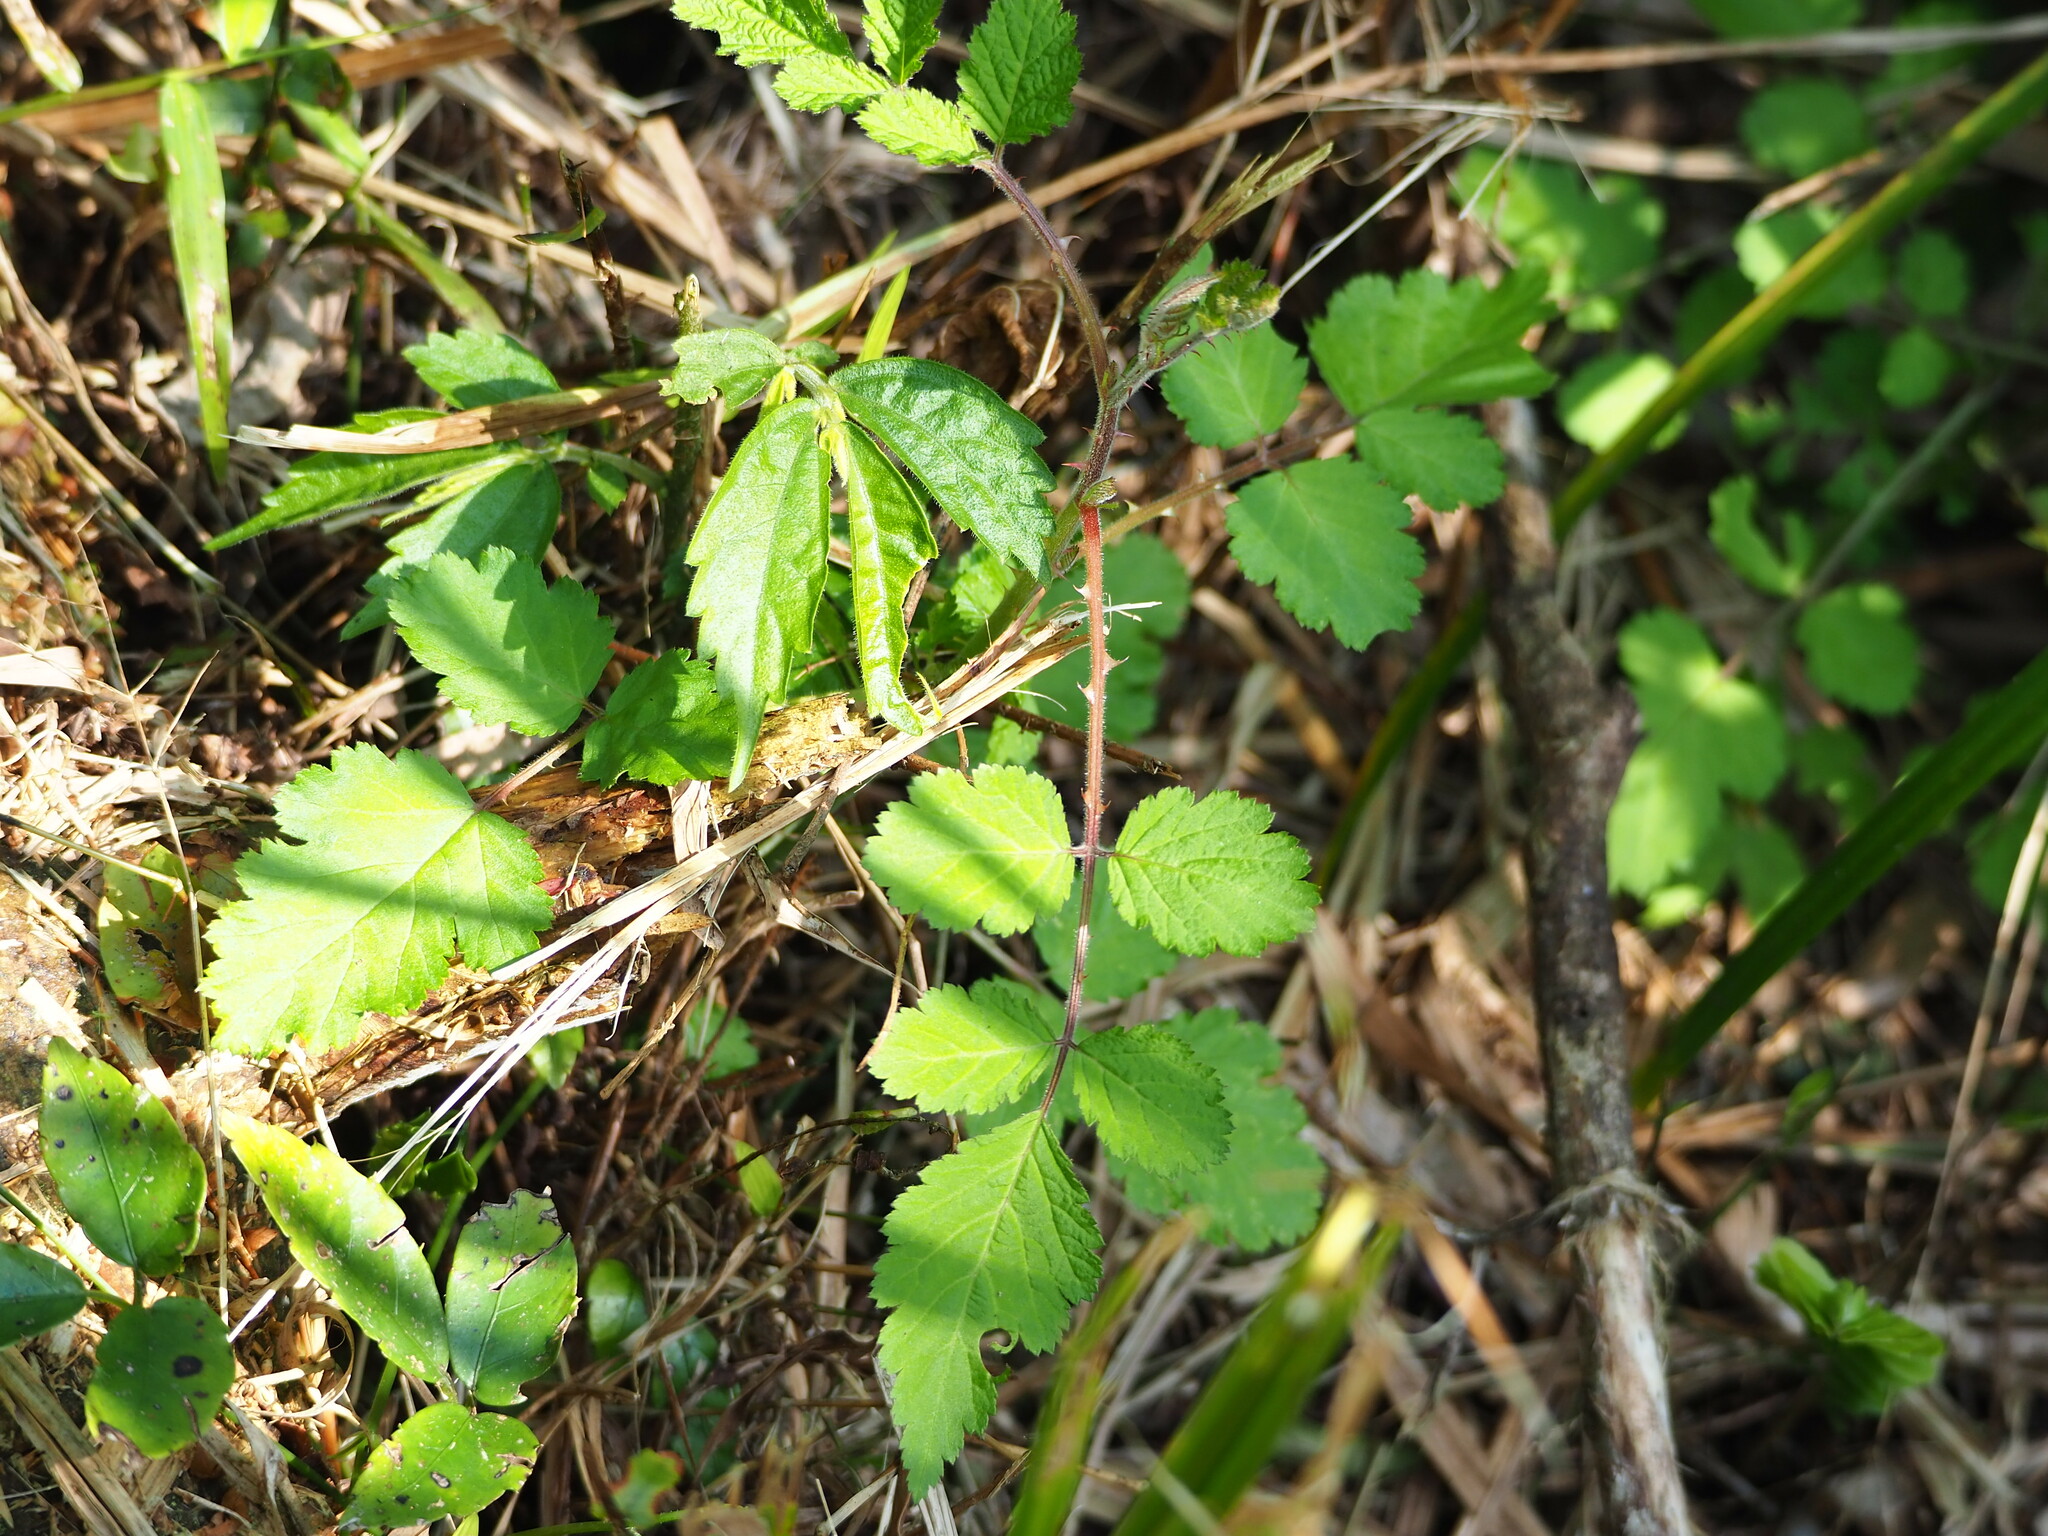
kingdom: Plantae
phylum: Tracheophyta
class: Magnoliopsida
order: Rosales
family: Rosaceae
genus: Rubus
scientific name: Rubus rosifolius
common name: Roseleaf raspberry
